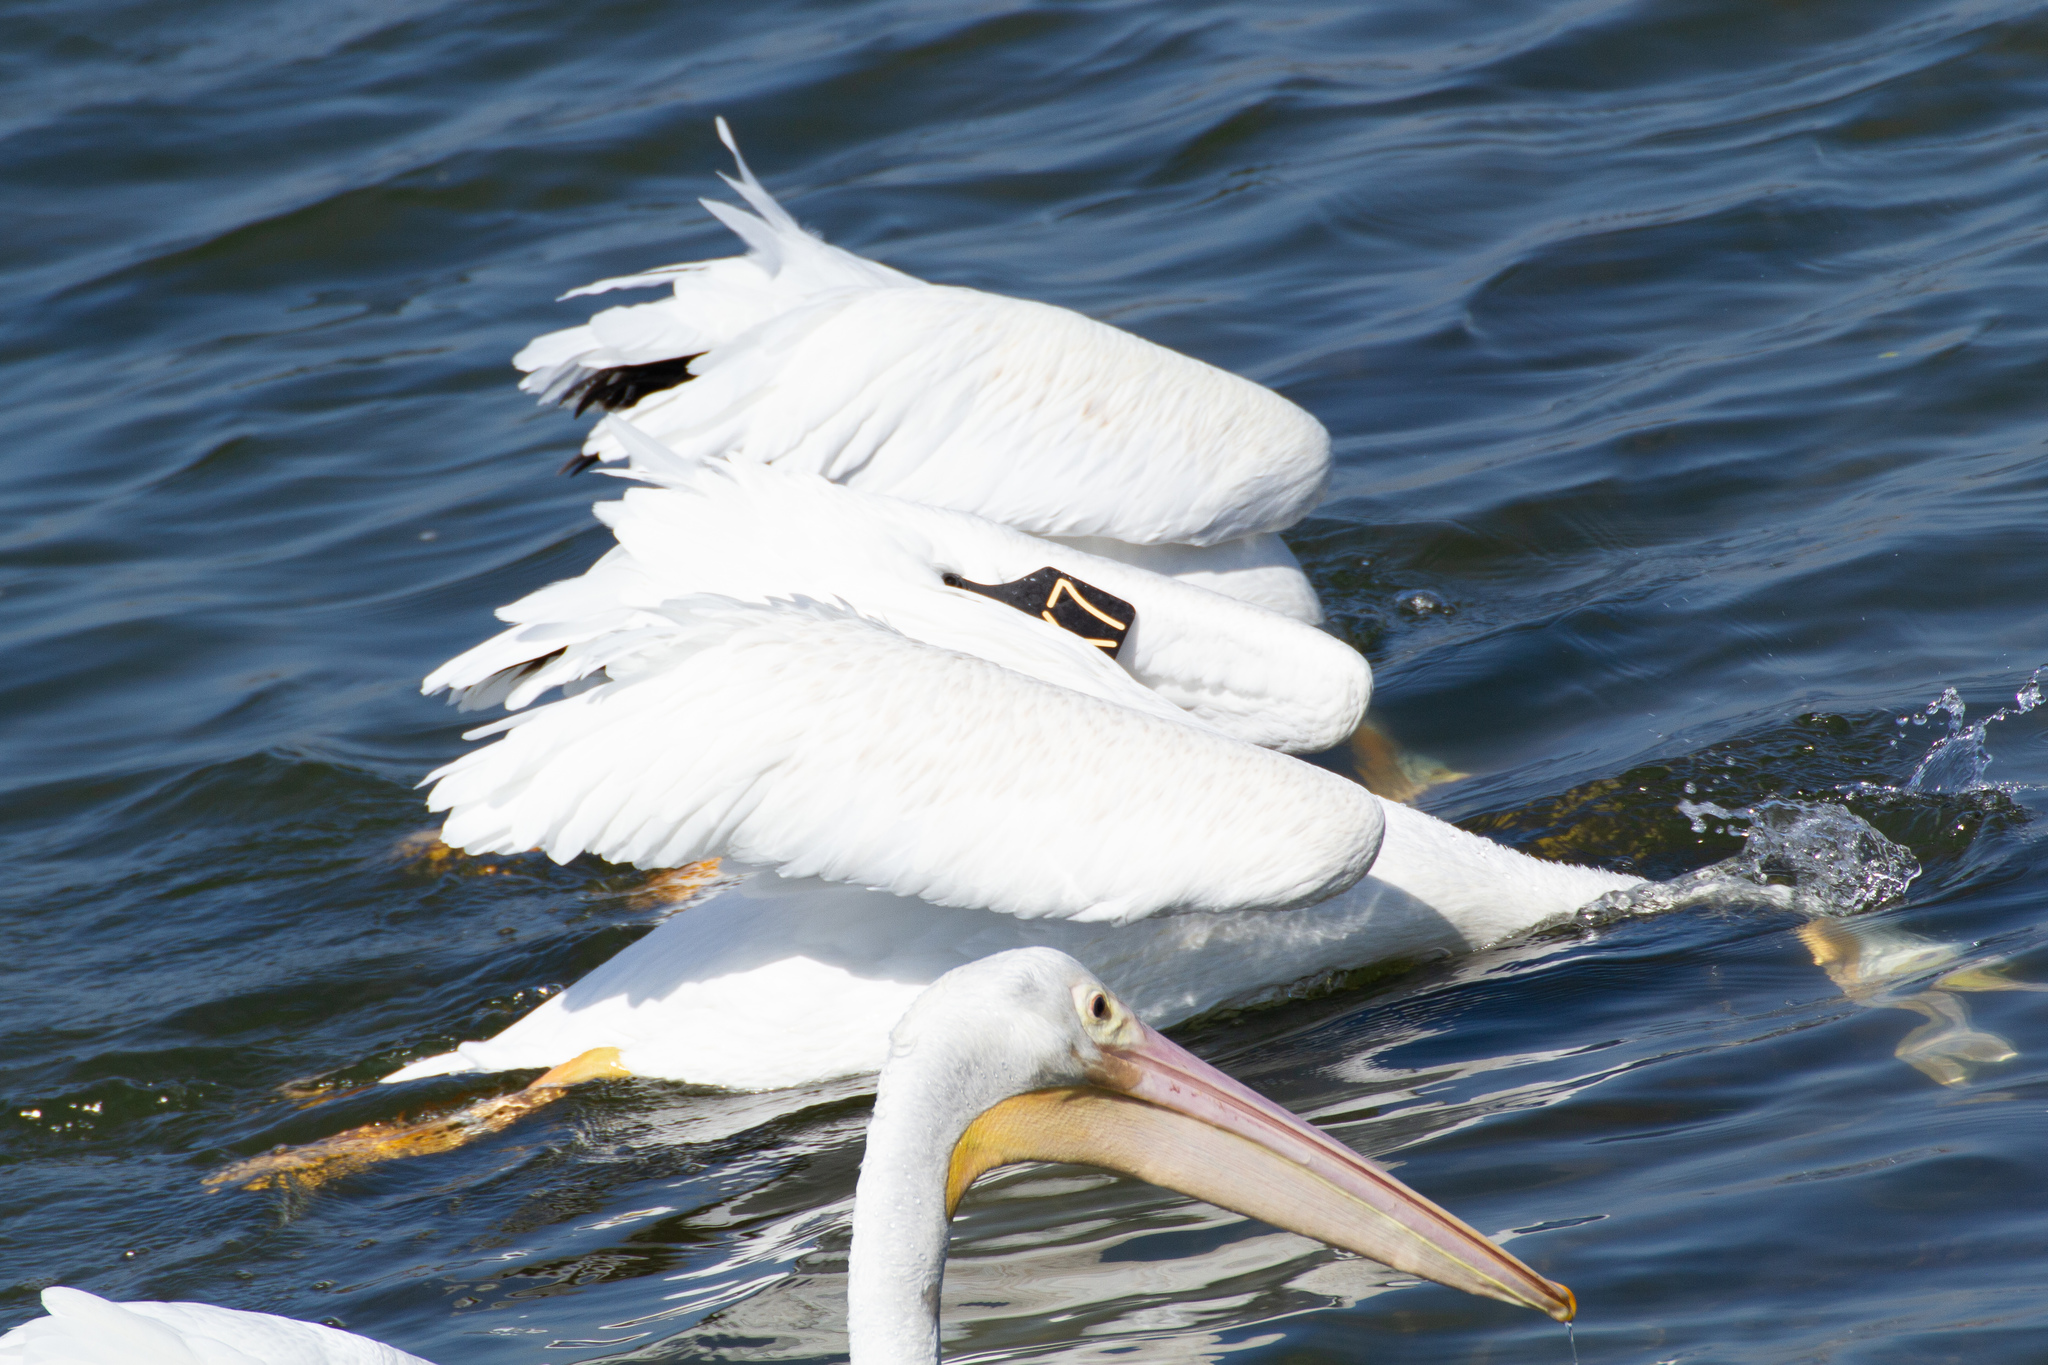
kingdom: Animalia
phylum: Chordata
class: Aves
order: Pelecaniformes
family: Pelecanidae
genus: Pelecanus
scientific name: Pelecanus erythrorhynchos
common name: American white pelican
